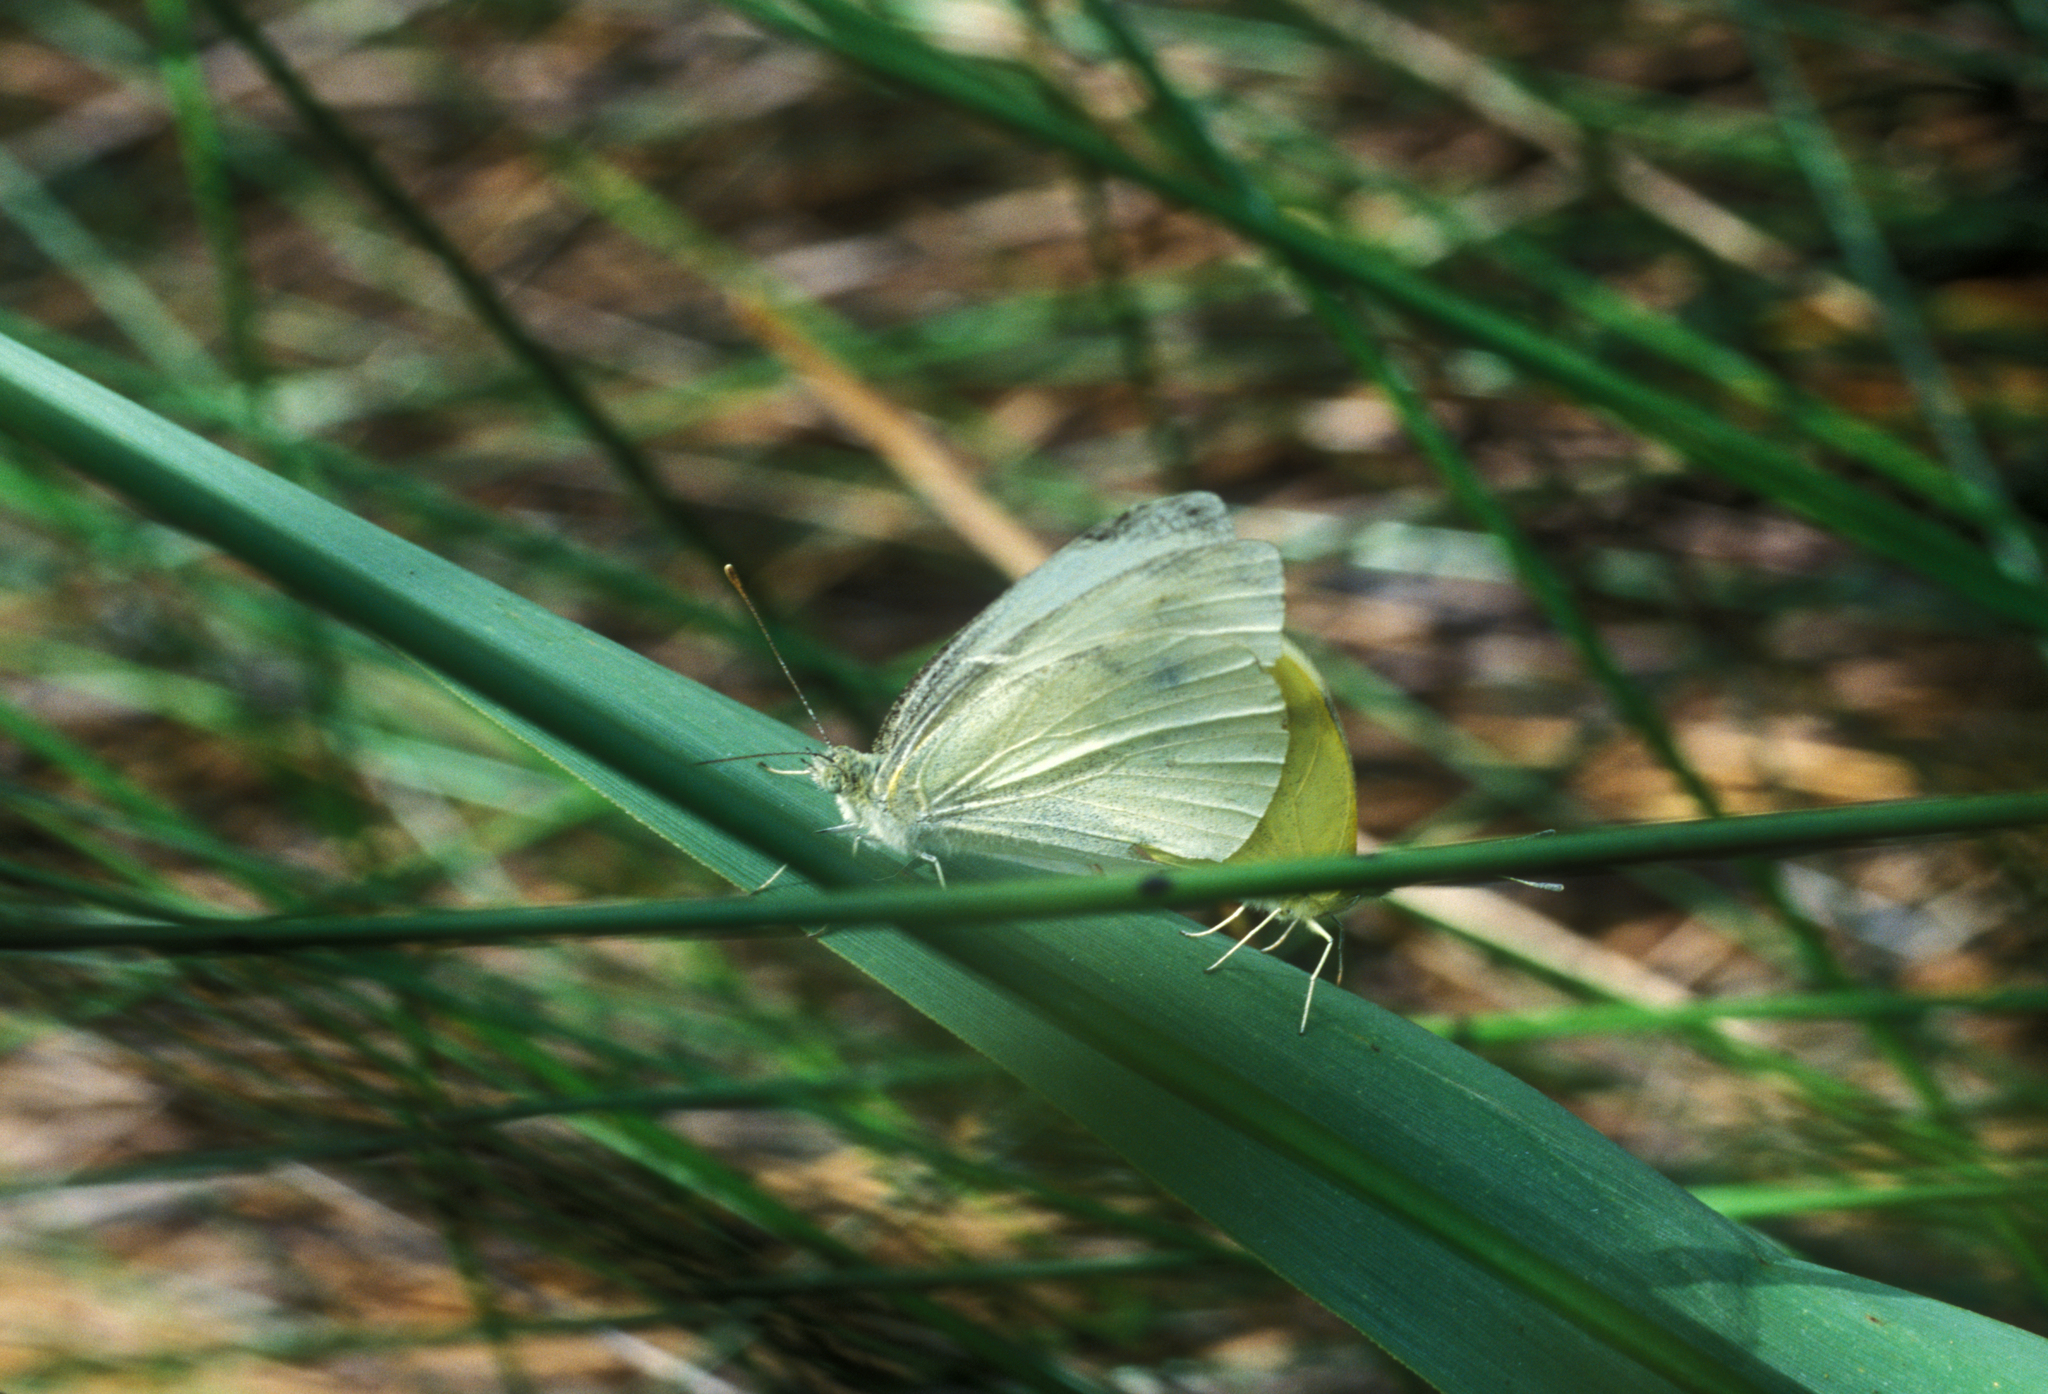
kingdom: Animalia
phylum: Arthropoda
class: Insecta
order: Lepidoptera
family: Pieridae
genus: Pieris
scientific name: Pieris rapae
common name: Small white
